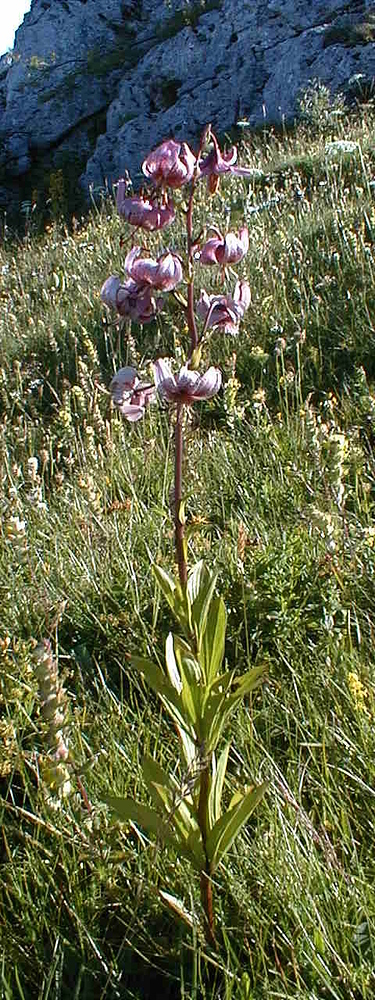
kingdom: Plantae
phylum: Tracheophyta
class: Liliopsida
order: Liliales
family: Liliaceae
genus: Lilium
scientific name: Lilium martagon
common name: Martagon lily
